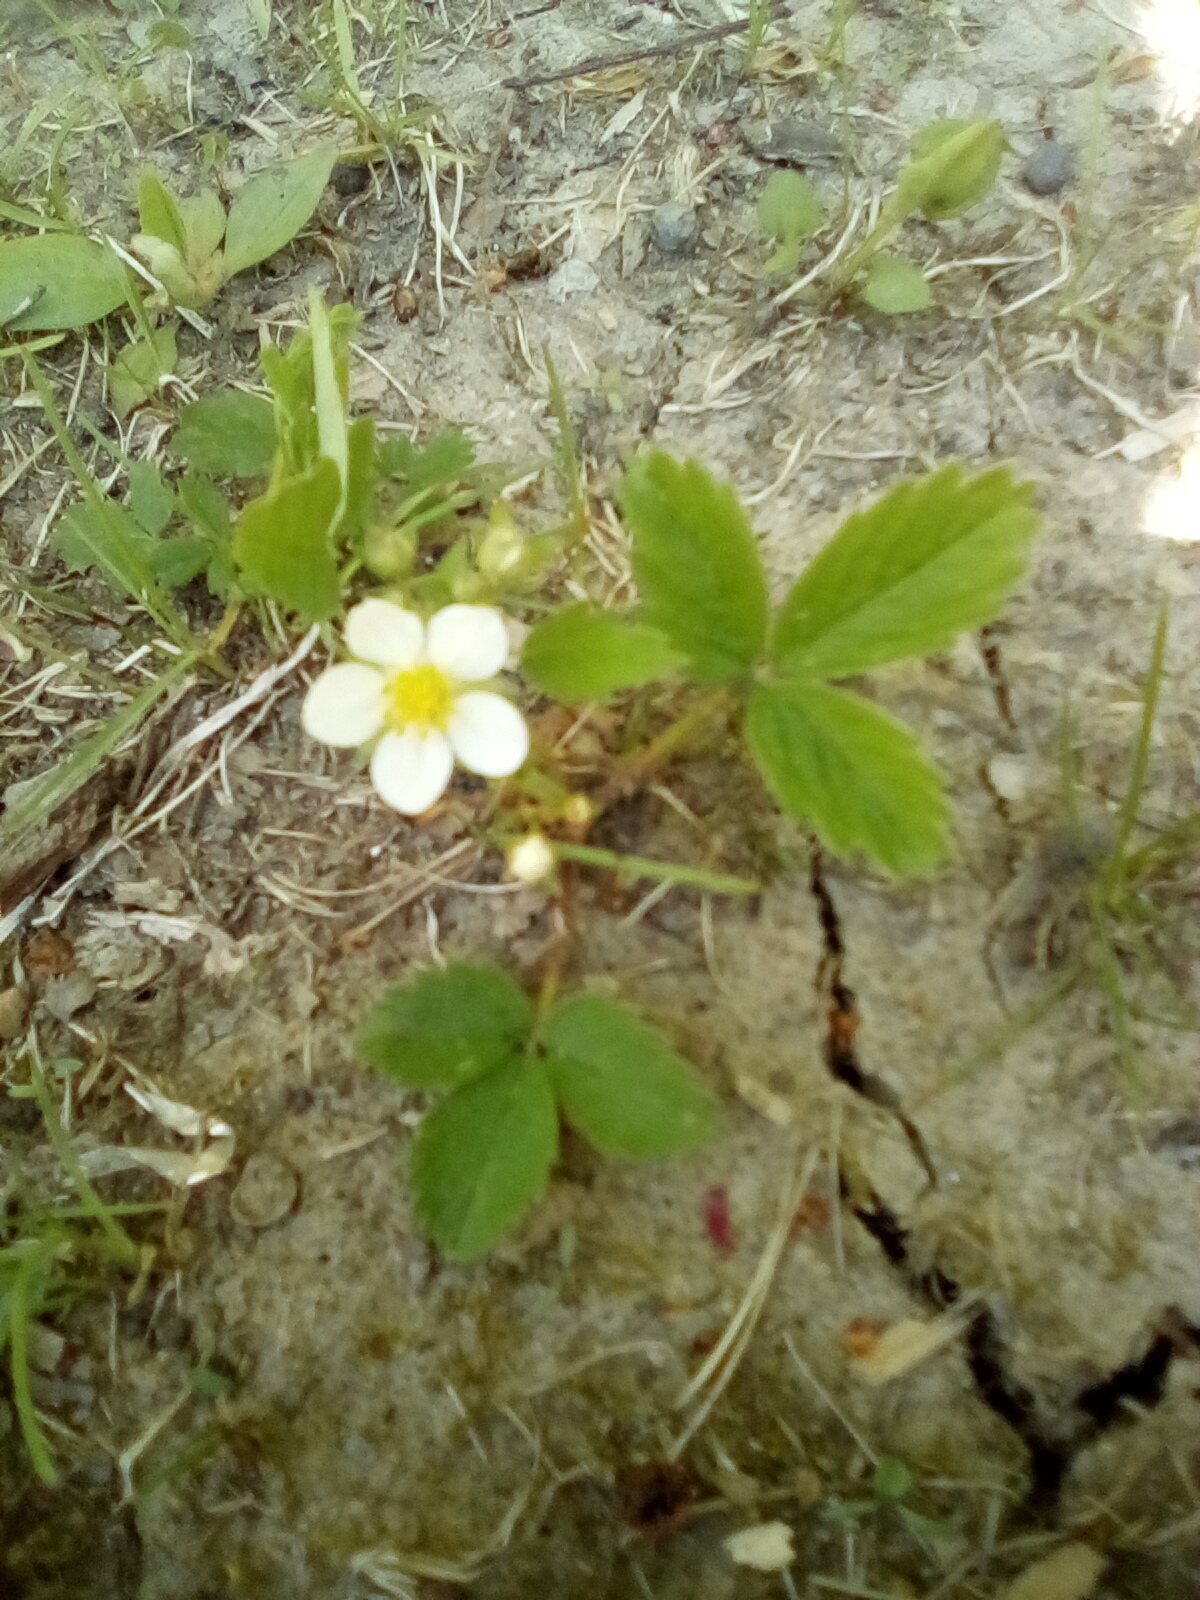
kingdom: Plantae
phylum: Tracheophyta
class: Magnoliopsida
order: Rosales
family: Rosaceae
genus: Fragaria
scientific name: Fragaria virginiana
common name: Thickleaved wild strawberry
